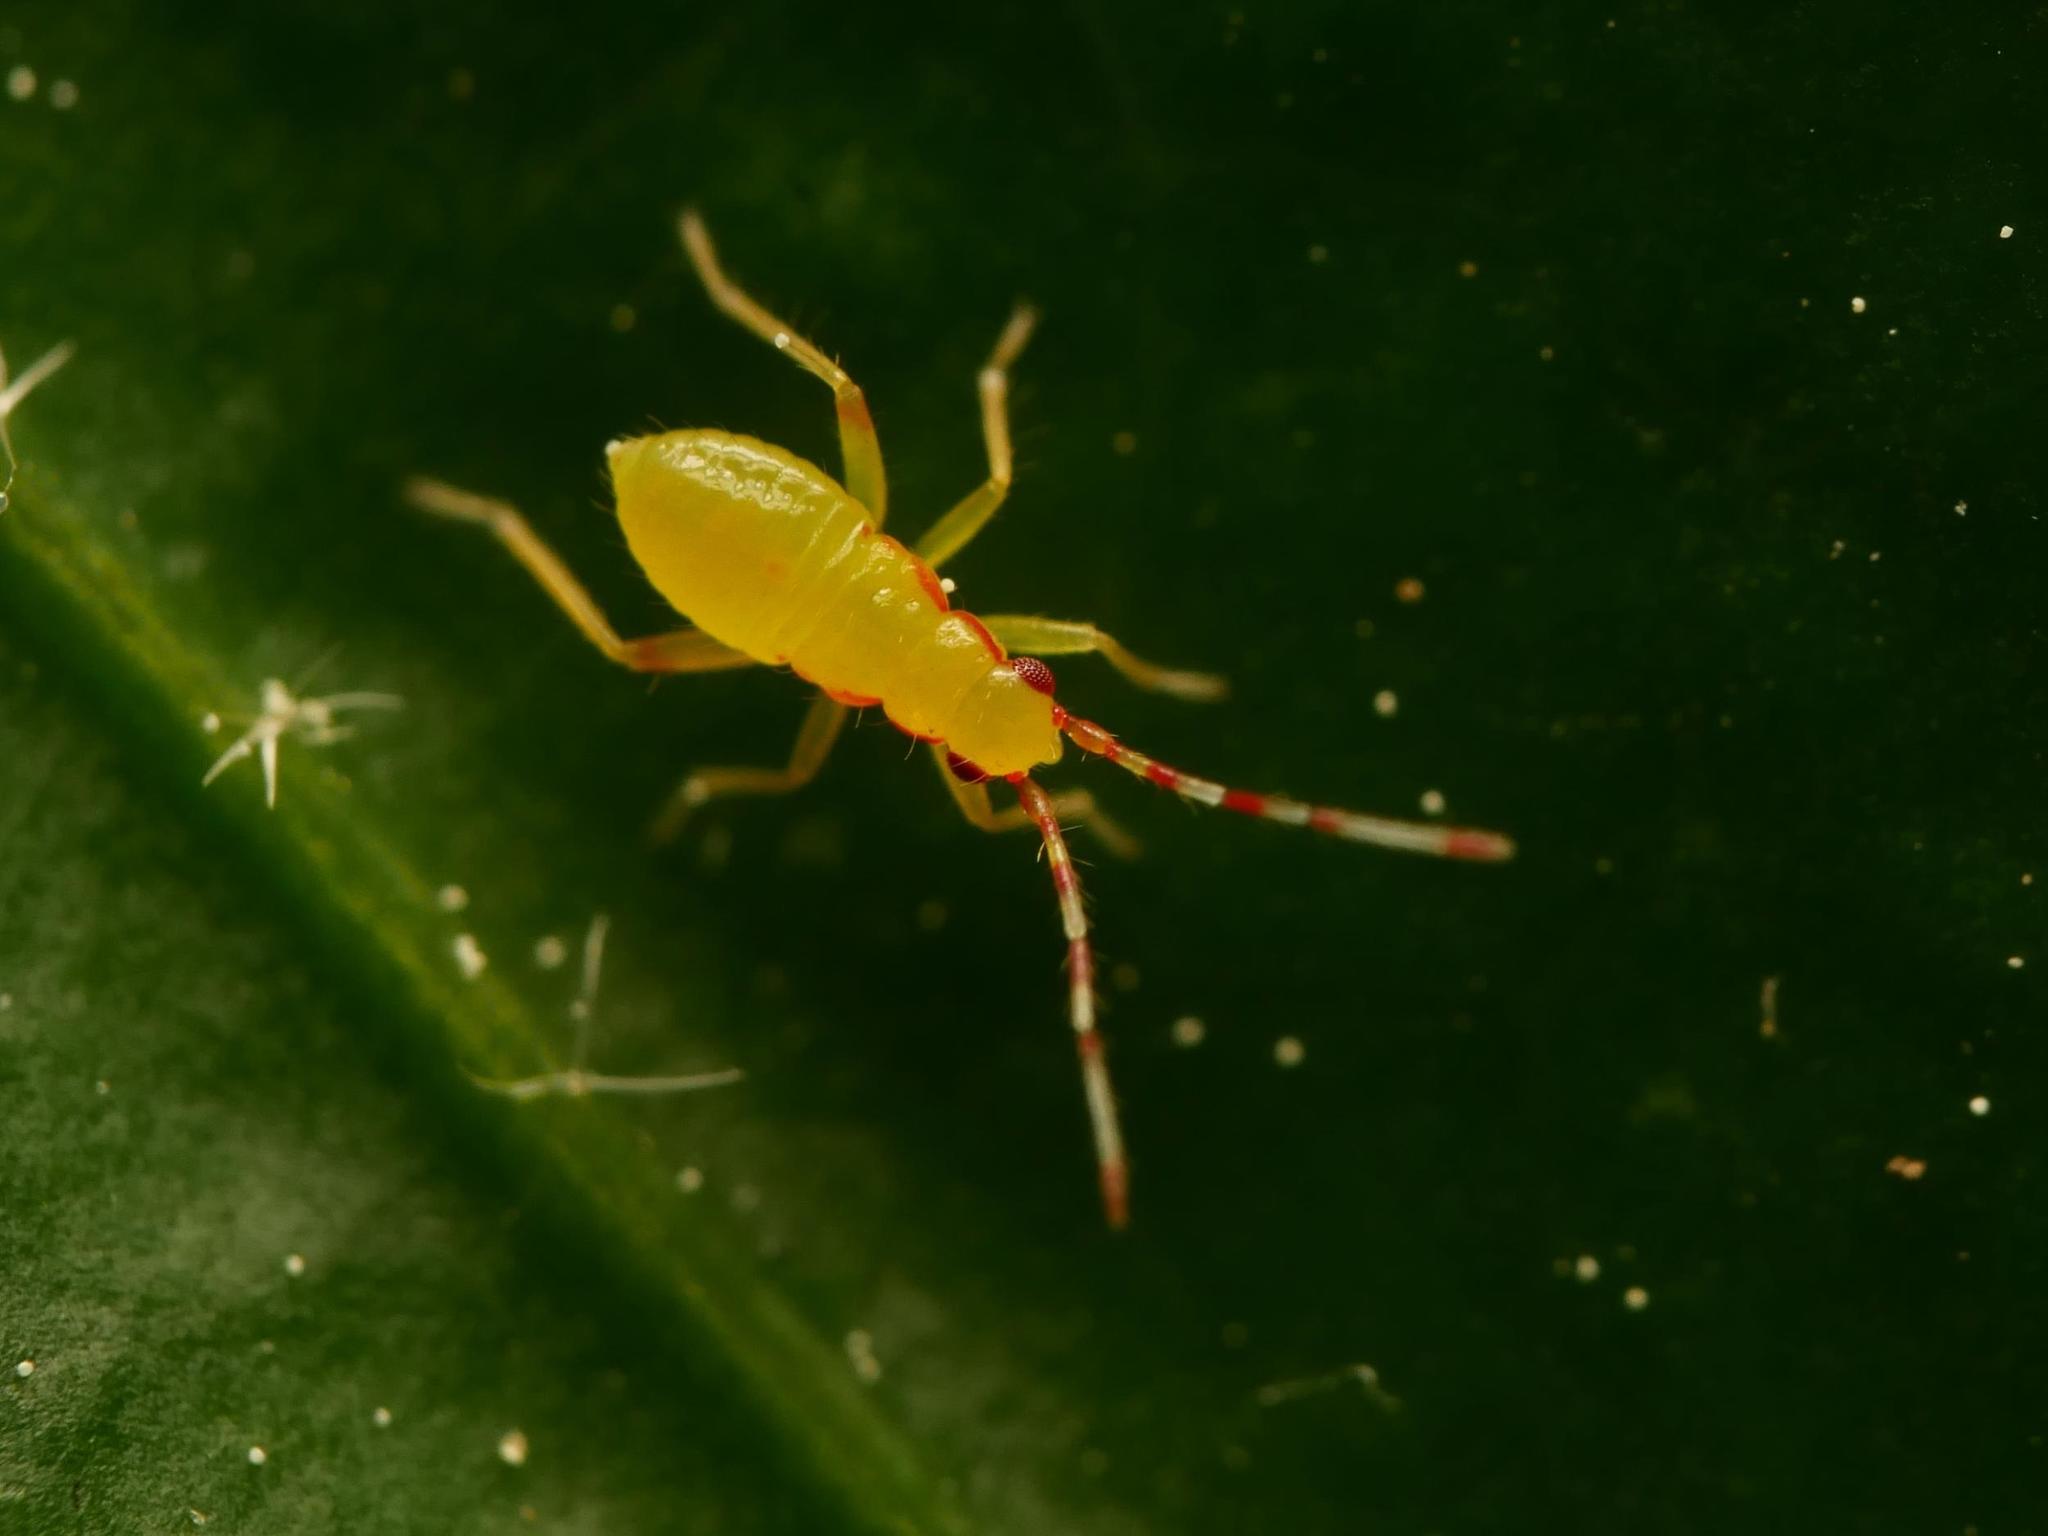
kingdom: Animalia
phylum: Arthropoda
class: Insecta
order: Hemiptera
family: Miridae
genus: Campyloneura
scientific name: Campyloneura virgula
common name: Predatory bug
